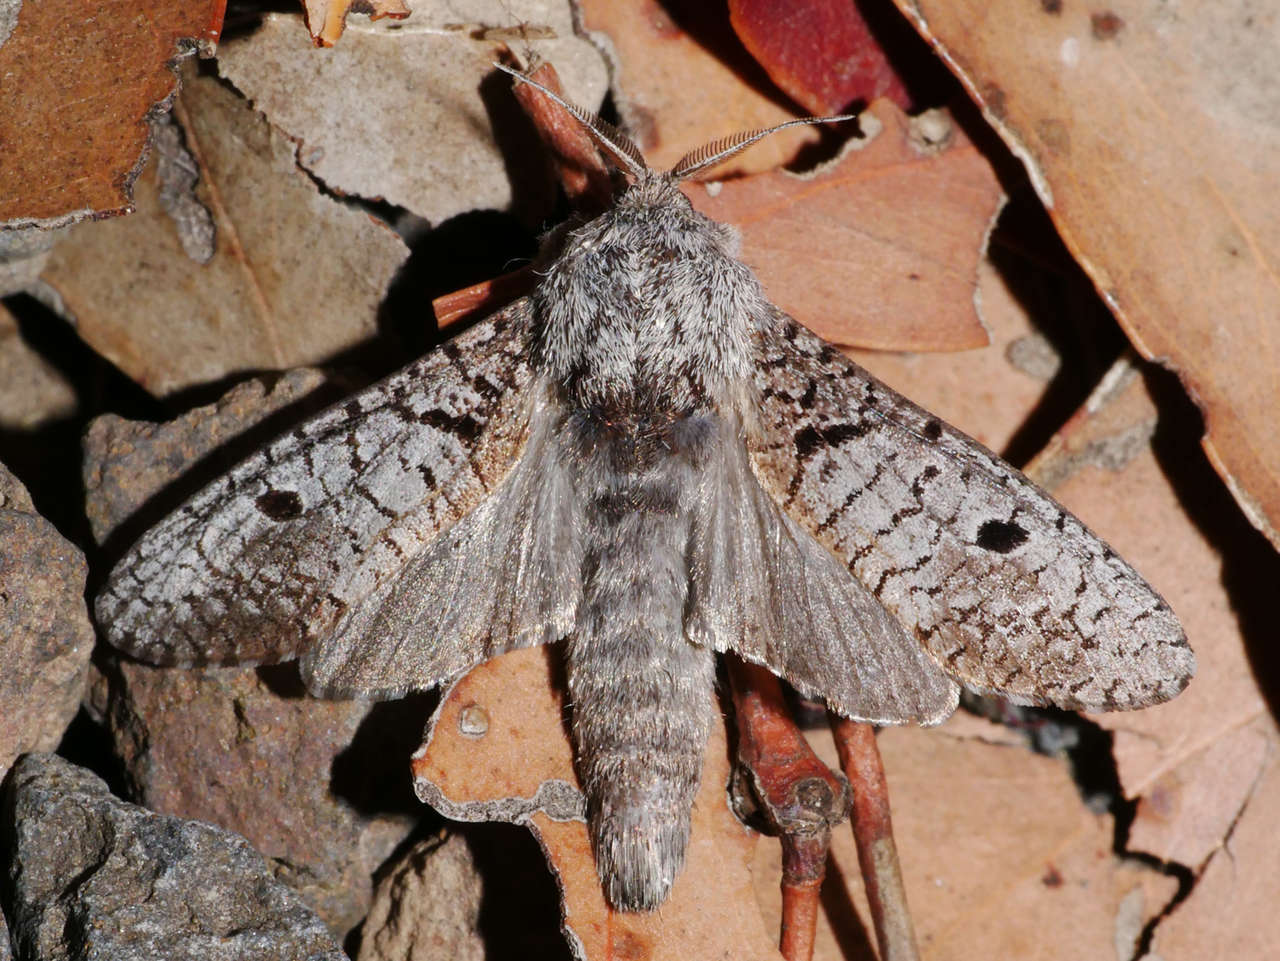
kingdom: Animalia
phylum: Arthropoda
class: Insecta
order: Lepidoptera
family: Cossidae
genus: Sympycnodes
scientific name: Sympycnodes
